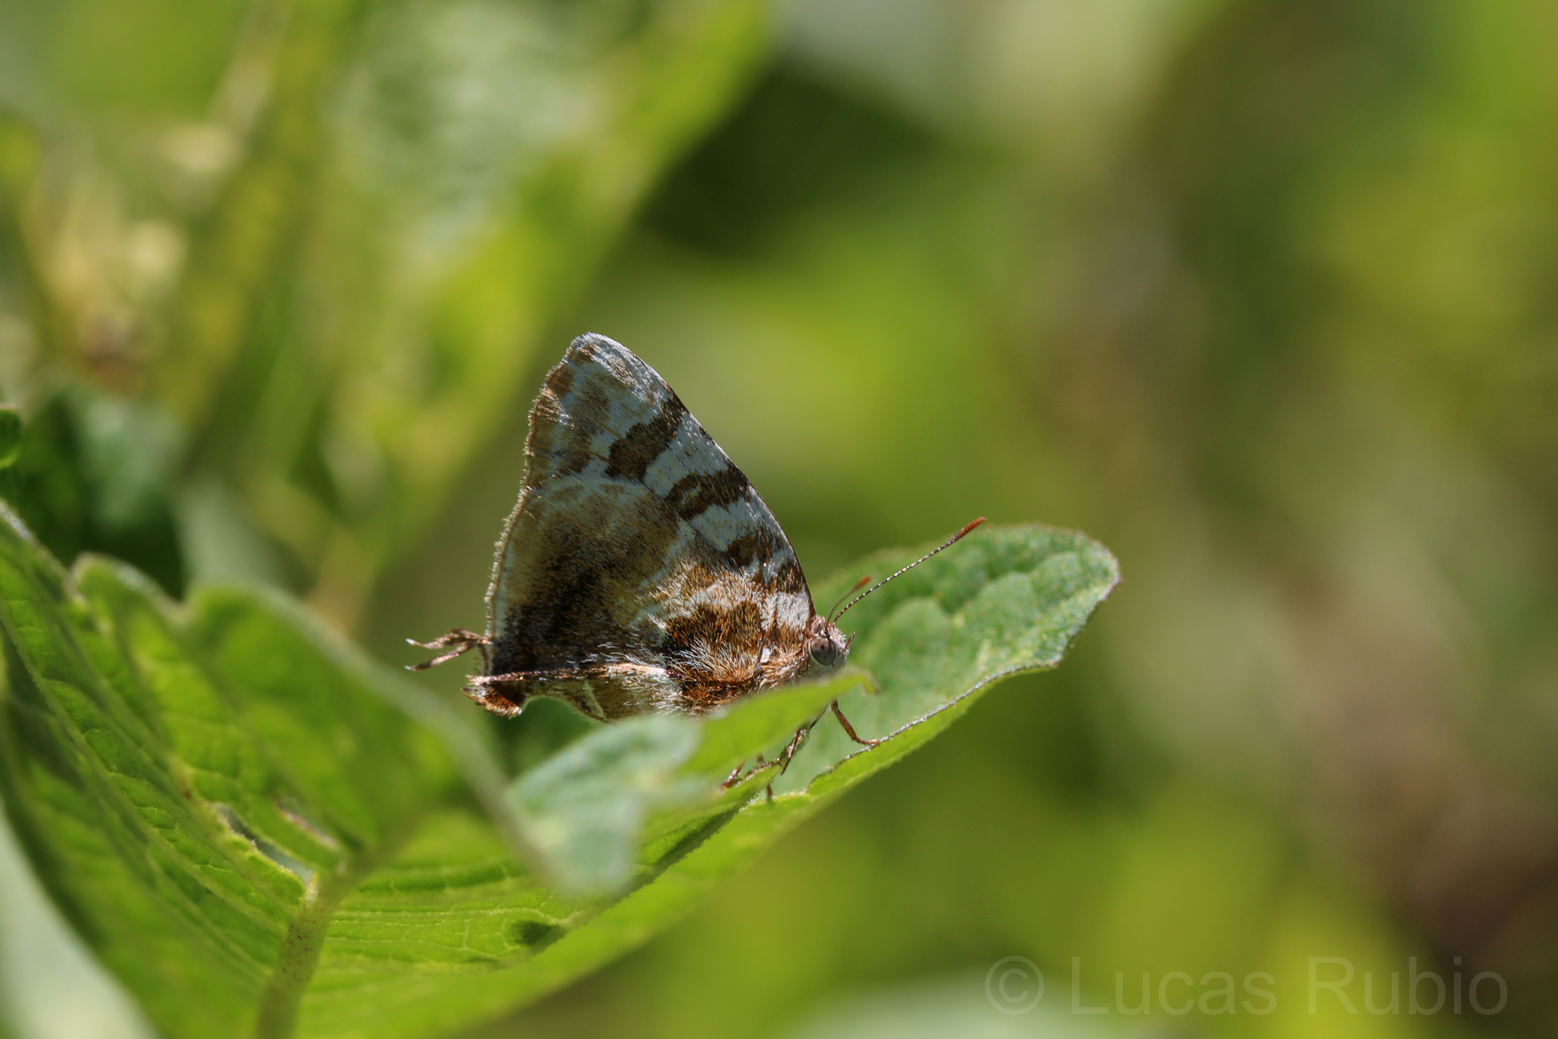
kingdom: Animalia
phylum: Arthropoda
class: Insecta
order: Lepidoptera
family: Lycaenidae
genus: Arawacus
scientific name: Arawacus ellida
